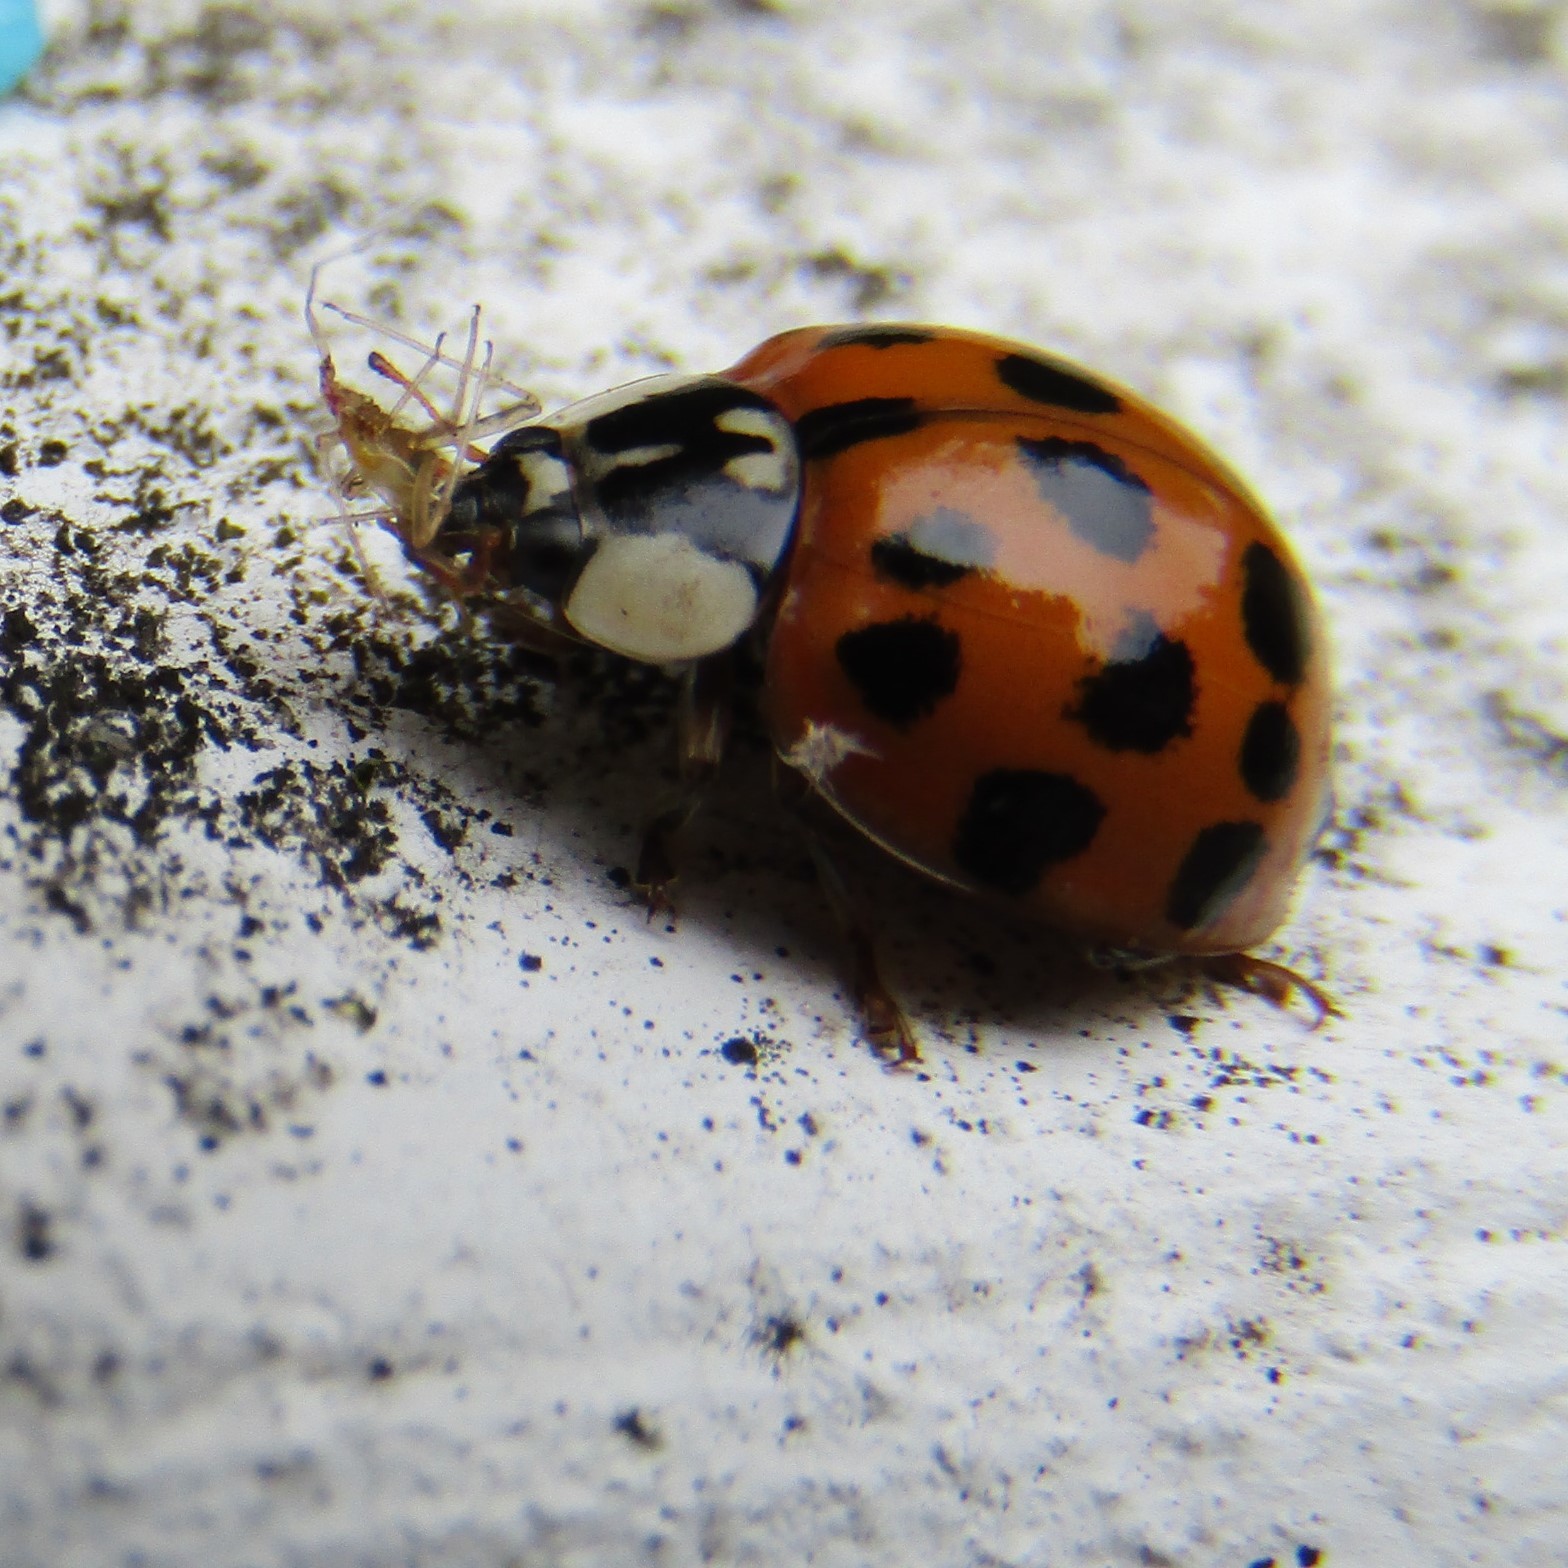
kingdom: Animalia
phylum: Arthropoda
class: Insecta
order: Coleoptera
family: Coccinellidae
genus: Harmonia
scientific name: Harmonia axyridis
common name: Harlequin ladybird
